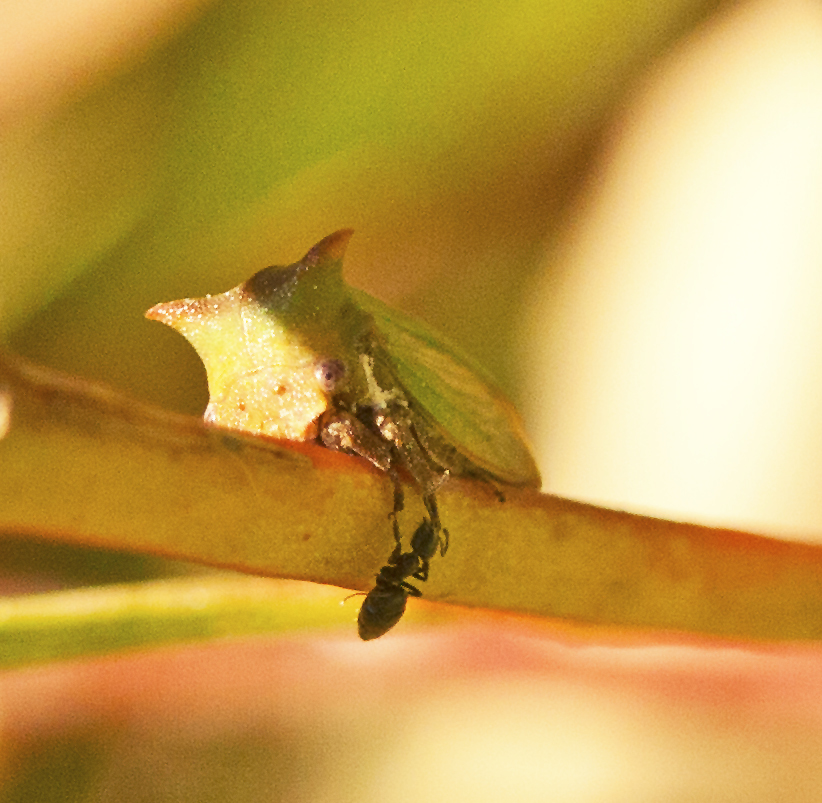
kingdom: Animalia
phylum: Arthropoda
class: Insecta
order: Hemiptera
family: Membracidae
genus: Sextius
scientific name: Sextius virescens
